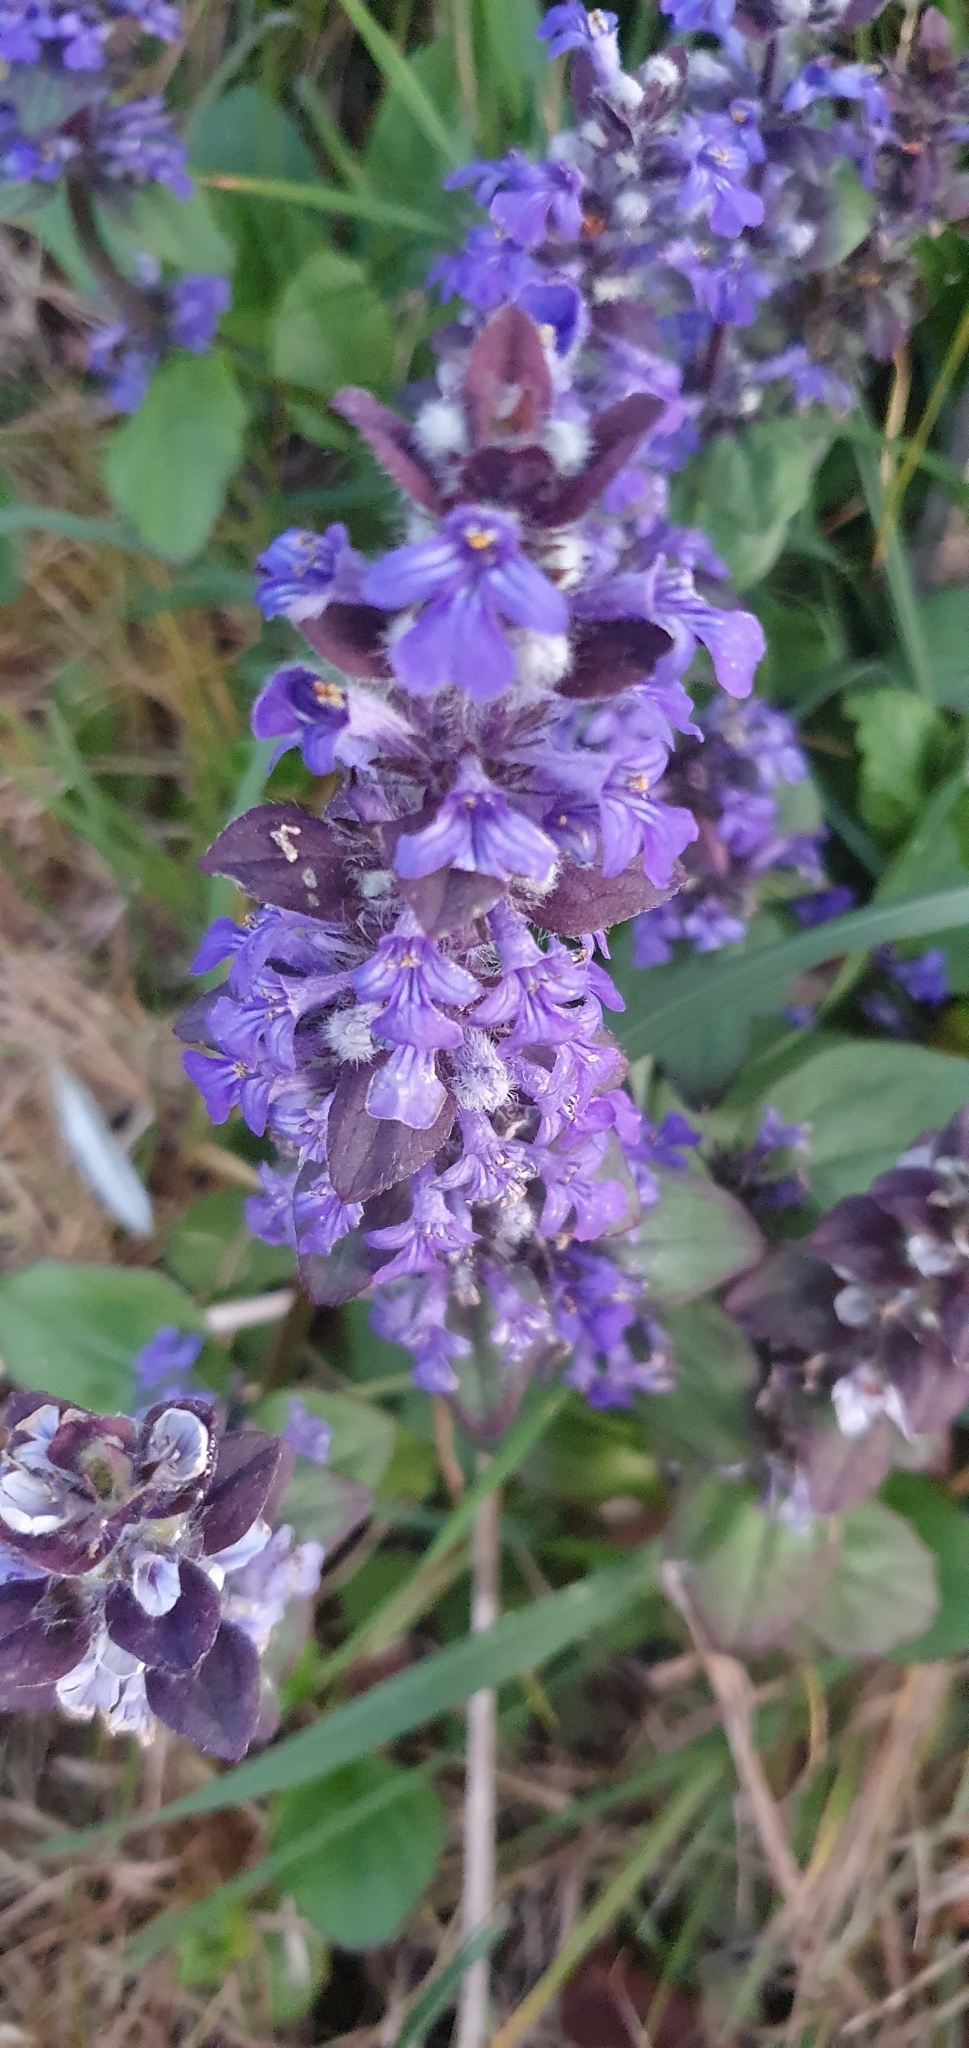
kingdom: Plantae
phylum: Tracheophyta
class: Magnoliopsida
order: Lamiales
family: Lamiaceae
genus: Ajuga
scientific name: Ajuga reptans
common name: Bugle
